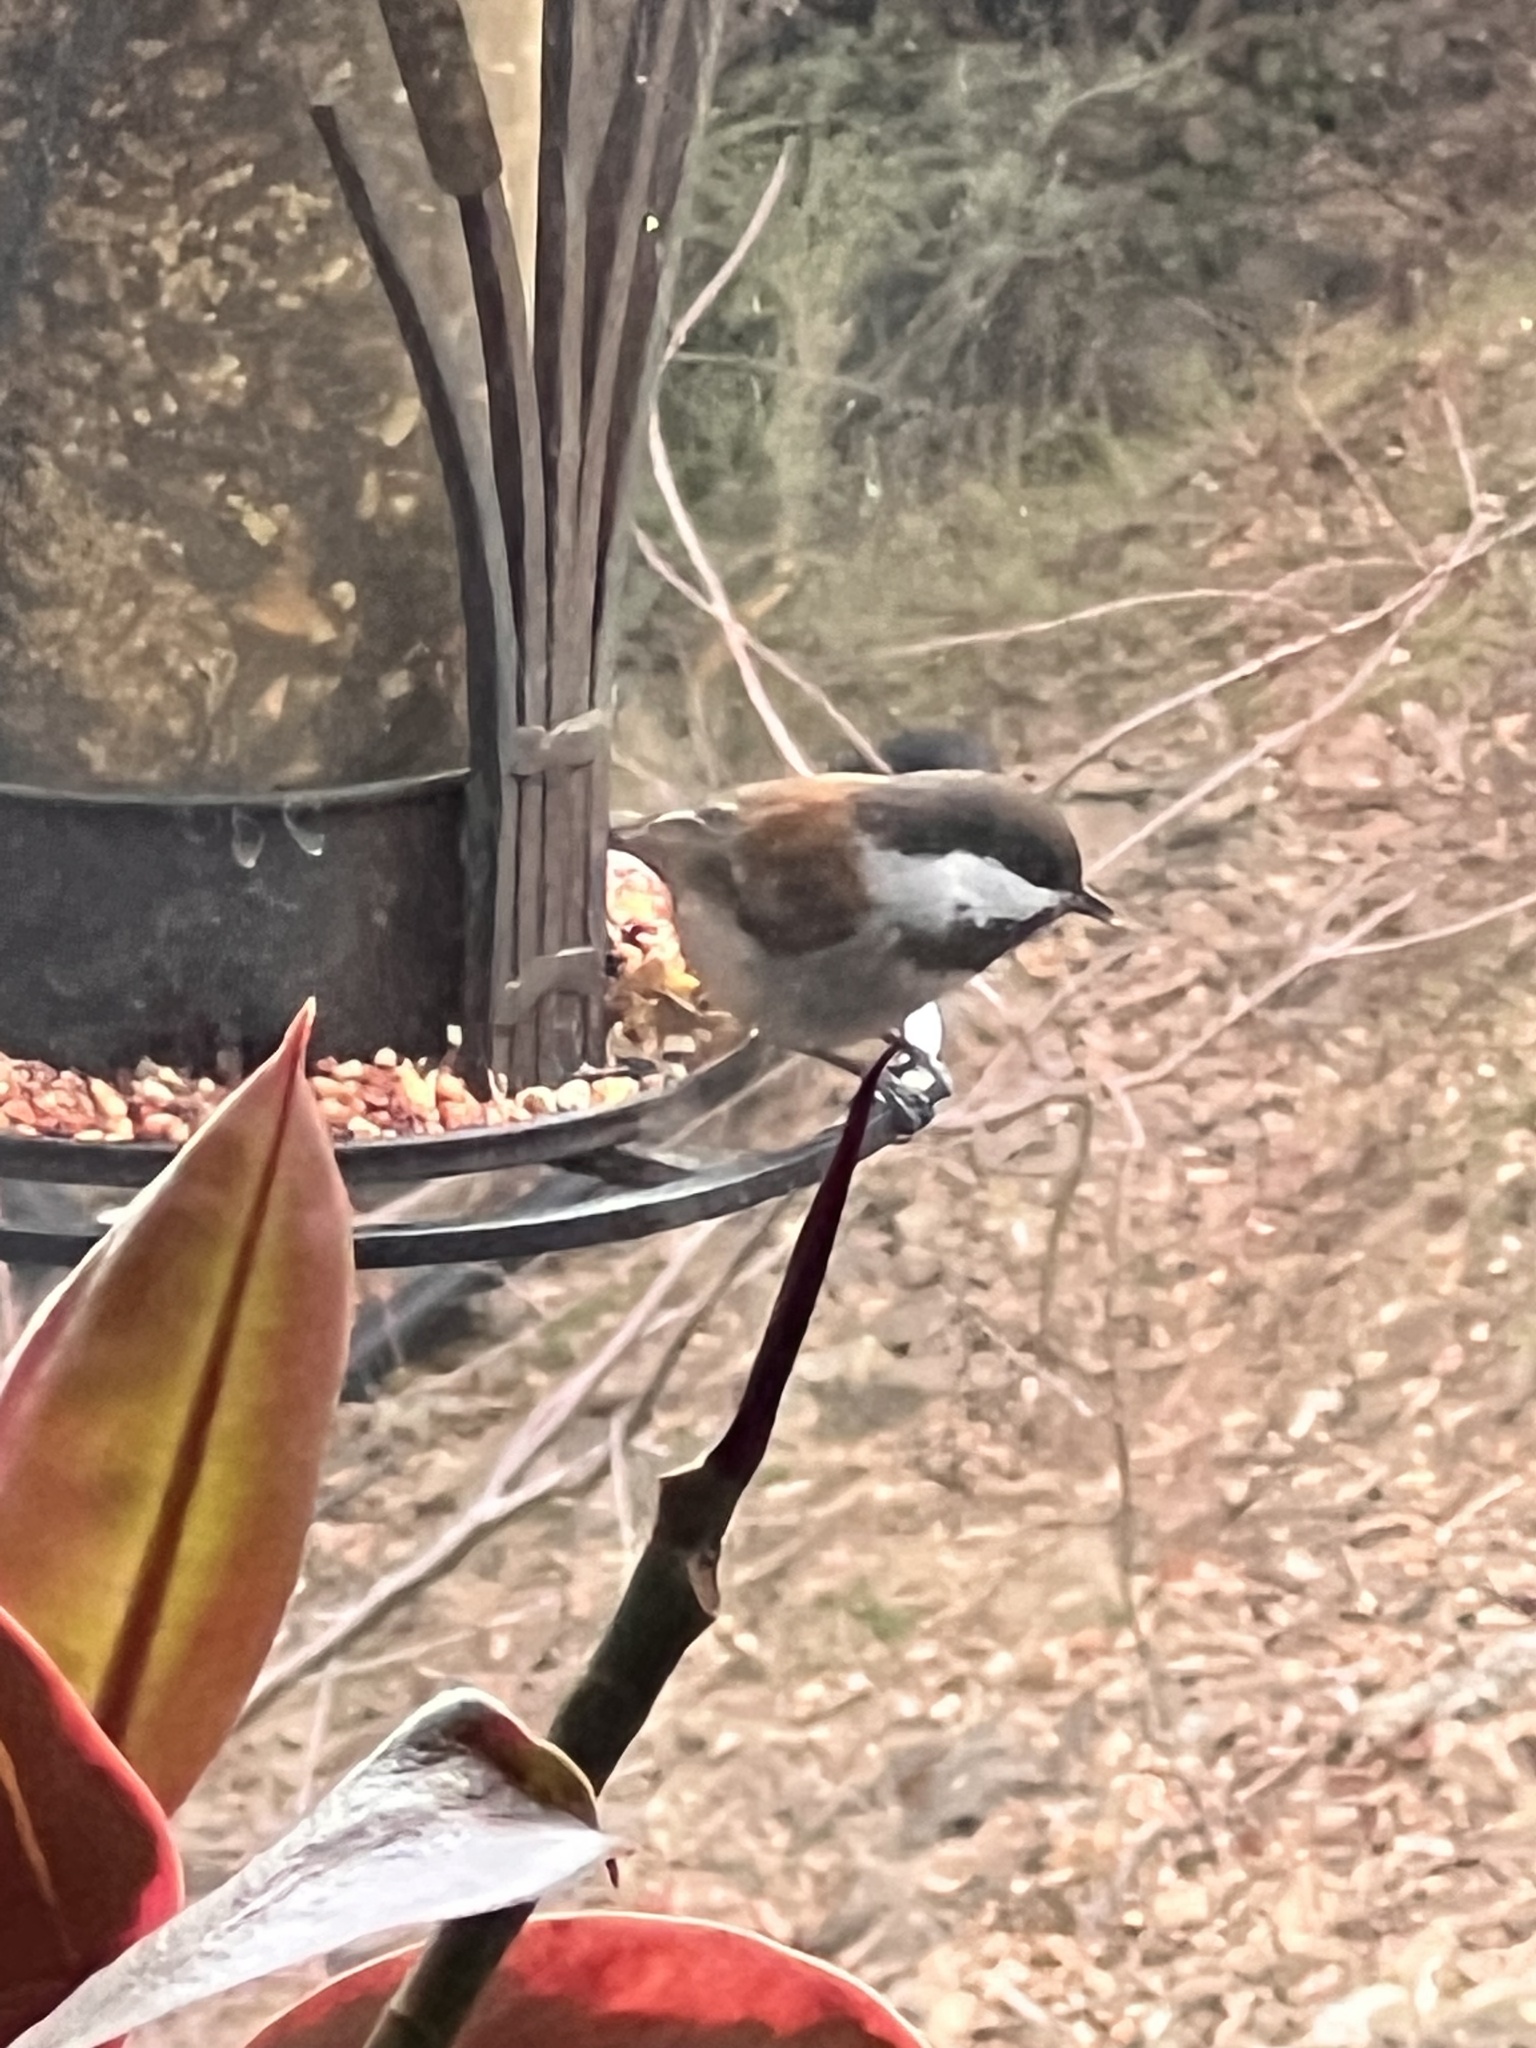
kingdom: Animalia
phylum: Chordata
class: Aves
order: Passeriformes
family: Paridae
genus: Poecile
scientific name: Poecile rufescens
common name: Chestnut-backed chickadee
